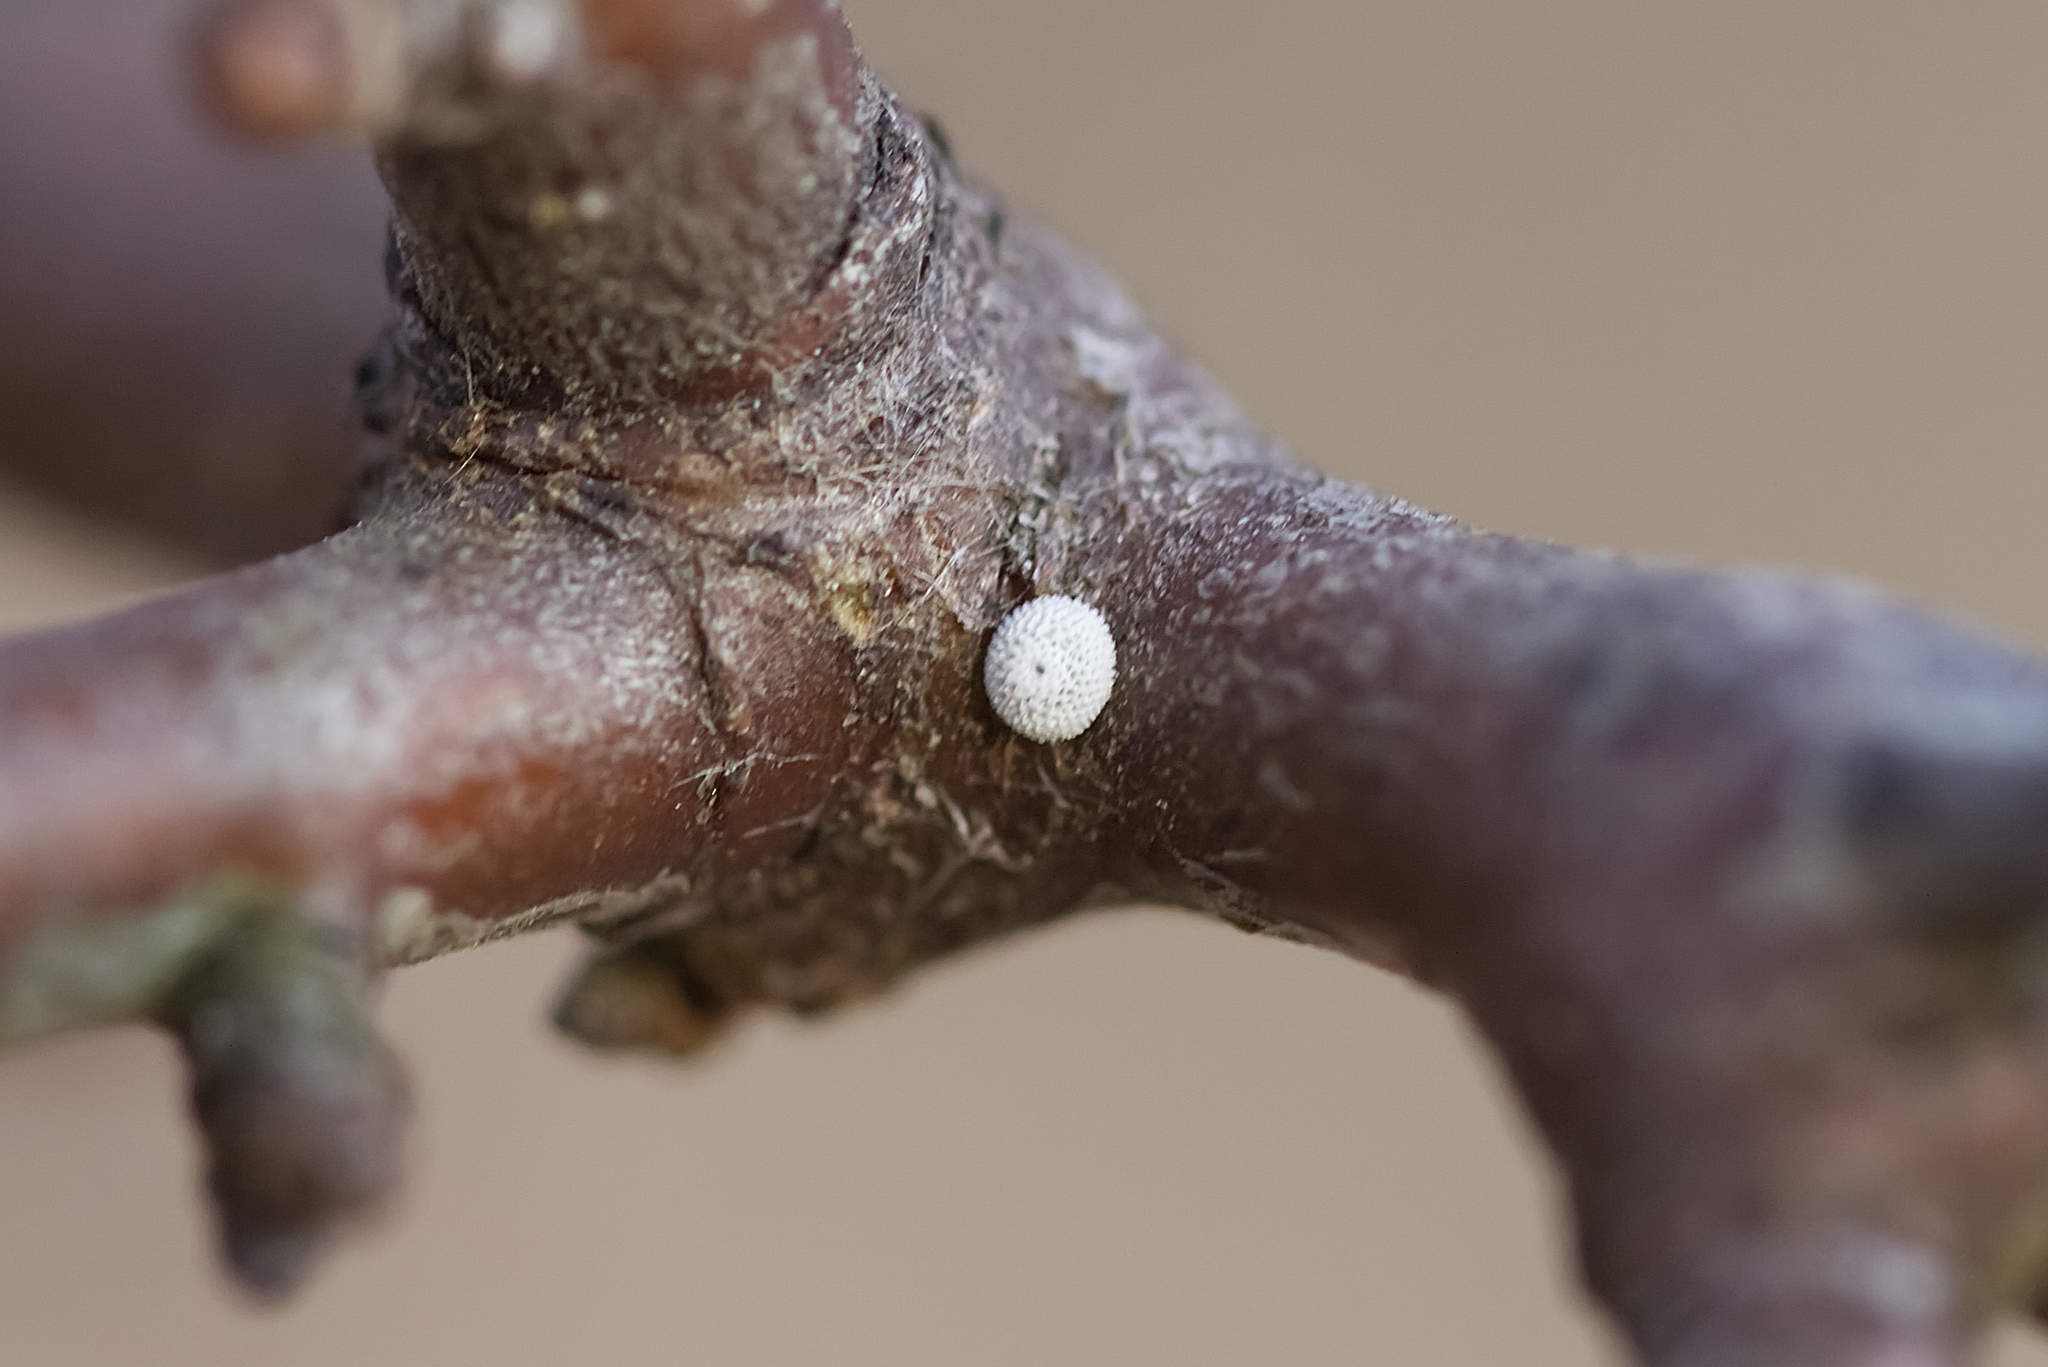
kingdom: Animalia
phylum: Arthropoda
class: Insecta
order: Lepidoptera
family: Lycaenidae
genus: Thecla
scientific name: Thecla betulae
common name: Brown hairstreak
